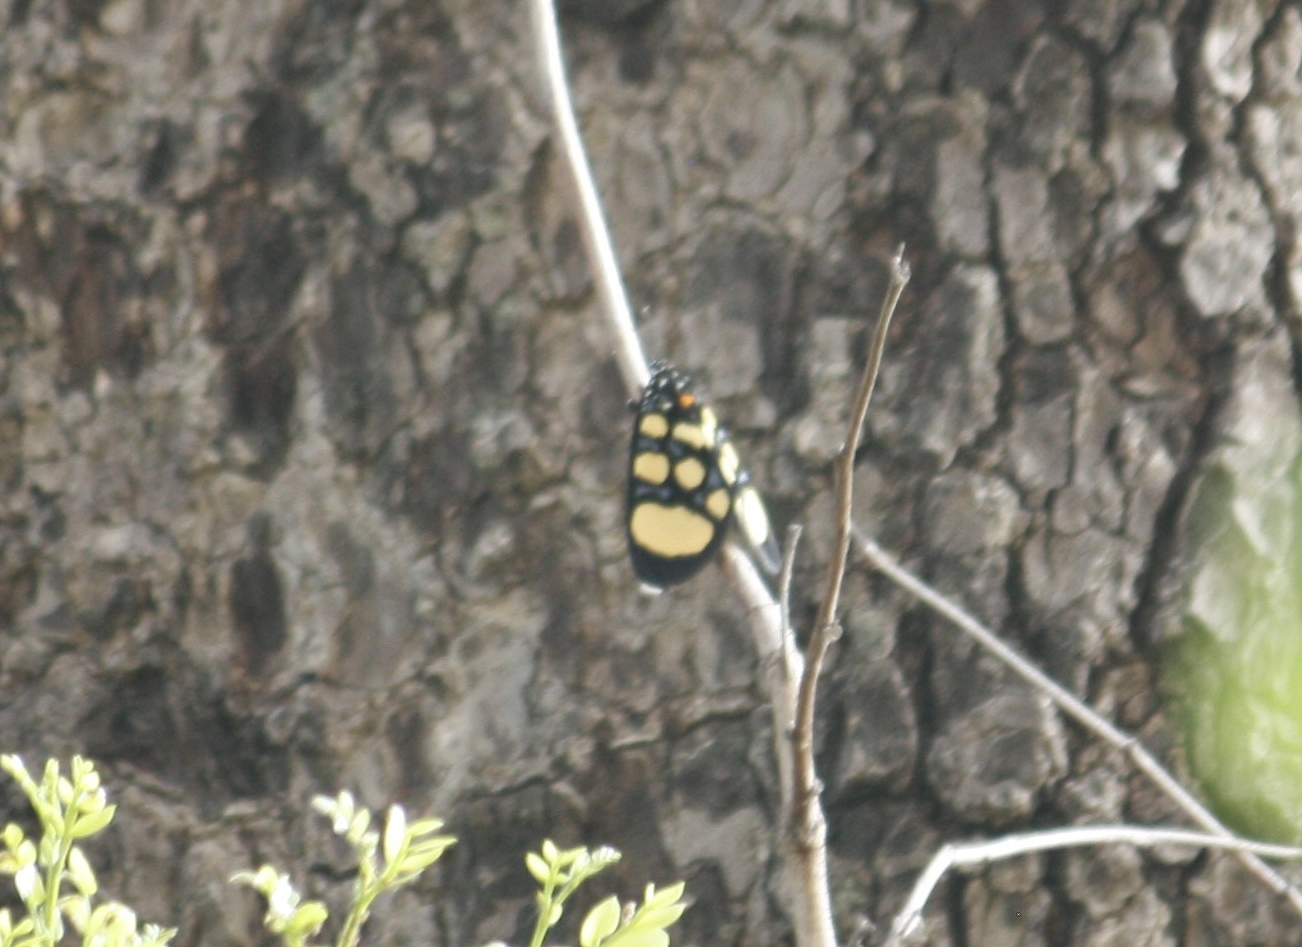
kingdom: Animalia
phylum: Arthropoda
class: Insecta
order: Lepidoptera
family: Noctuidae
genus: Heraclia
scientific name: Heraclia superba
